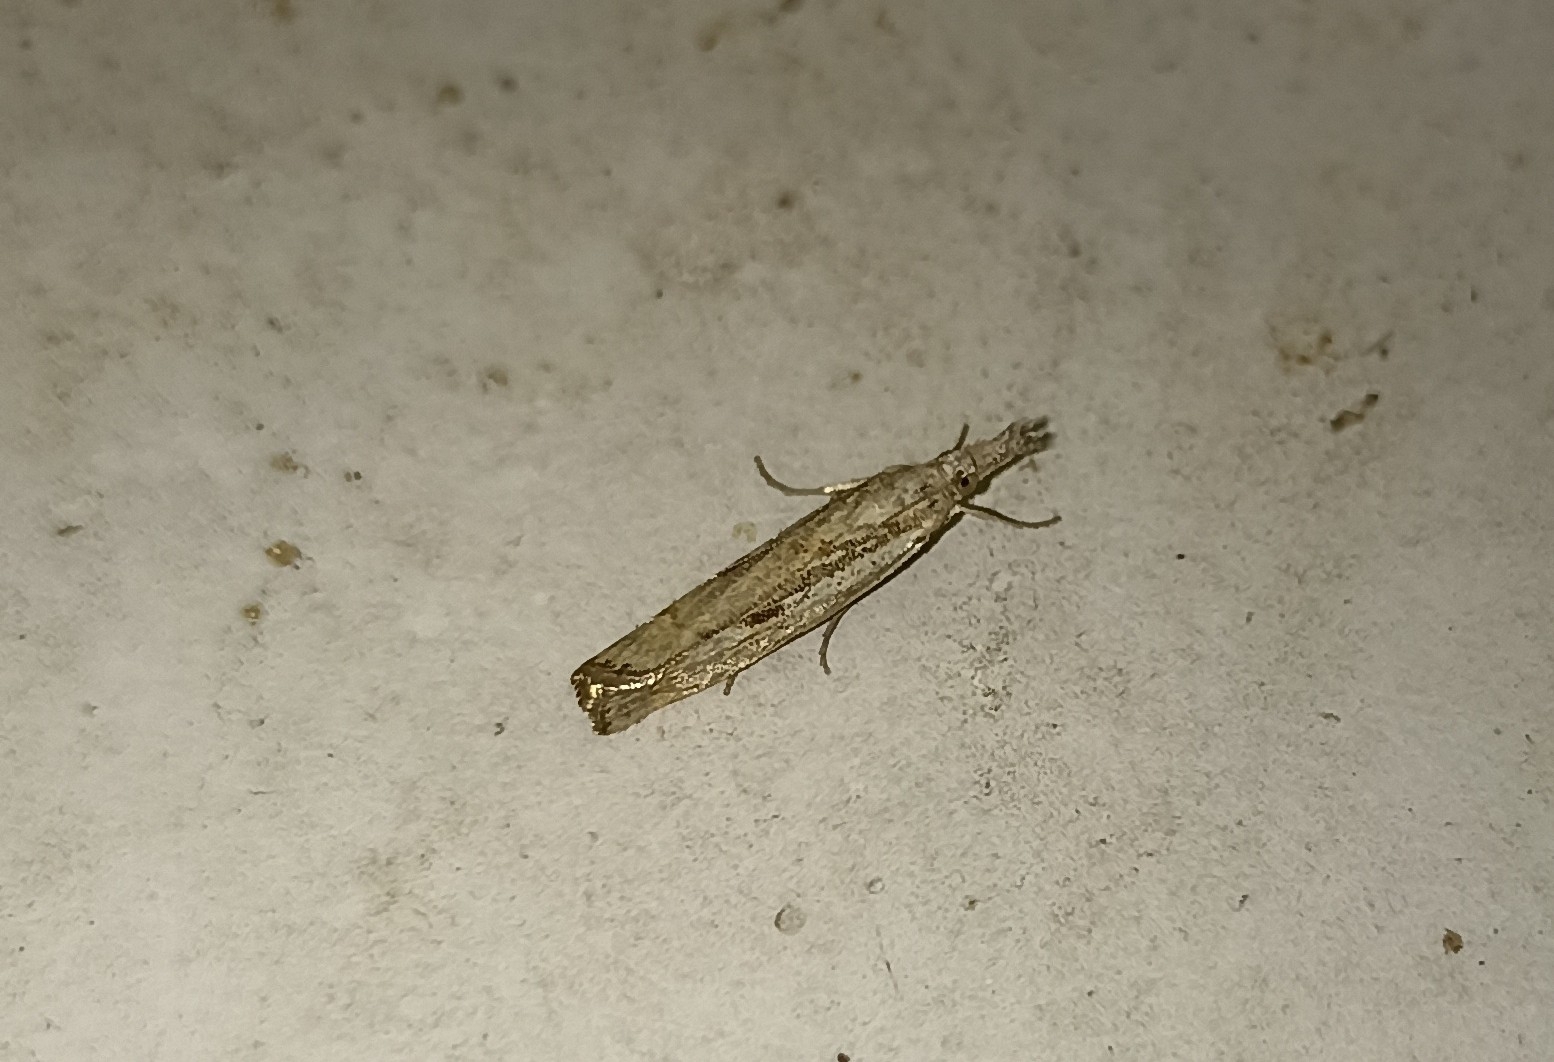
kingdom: Animalia
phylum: Arthropoda
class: Insecta
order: Lepidoptera
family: Crambidae
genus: Agriphila
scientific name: Agriphila geniculea
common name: Elbow-stripe grass-veneer
